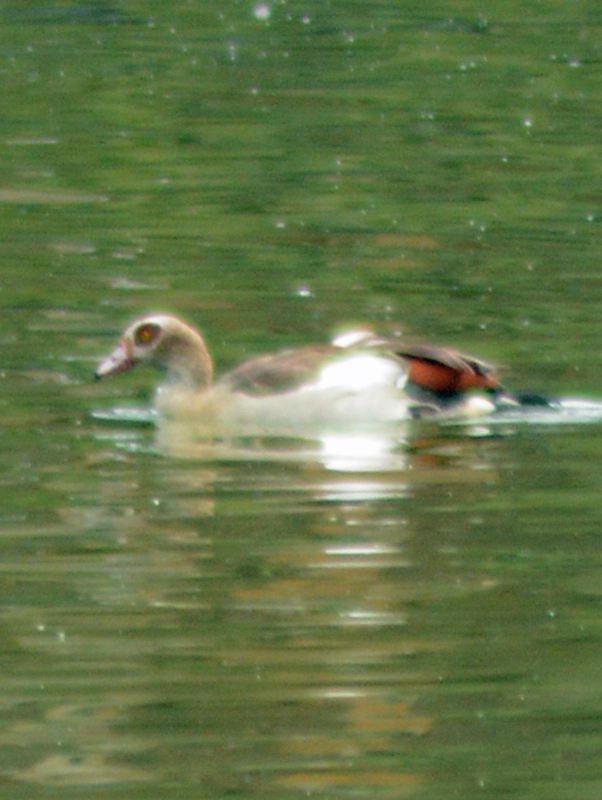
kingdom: Animalia
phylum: Chordata
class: Aves
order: Anseriformes
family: Anatidae
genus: Alopochen
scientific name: Alopochen aegyptiaca
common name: Egyptian goose
